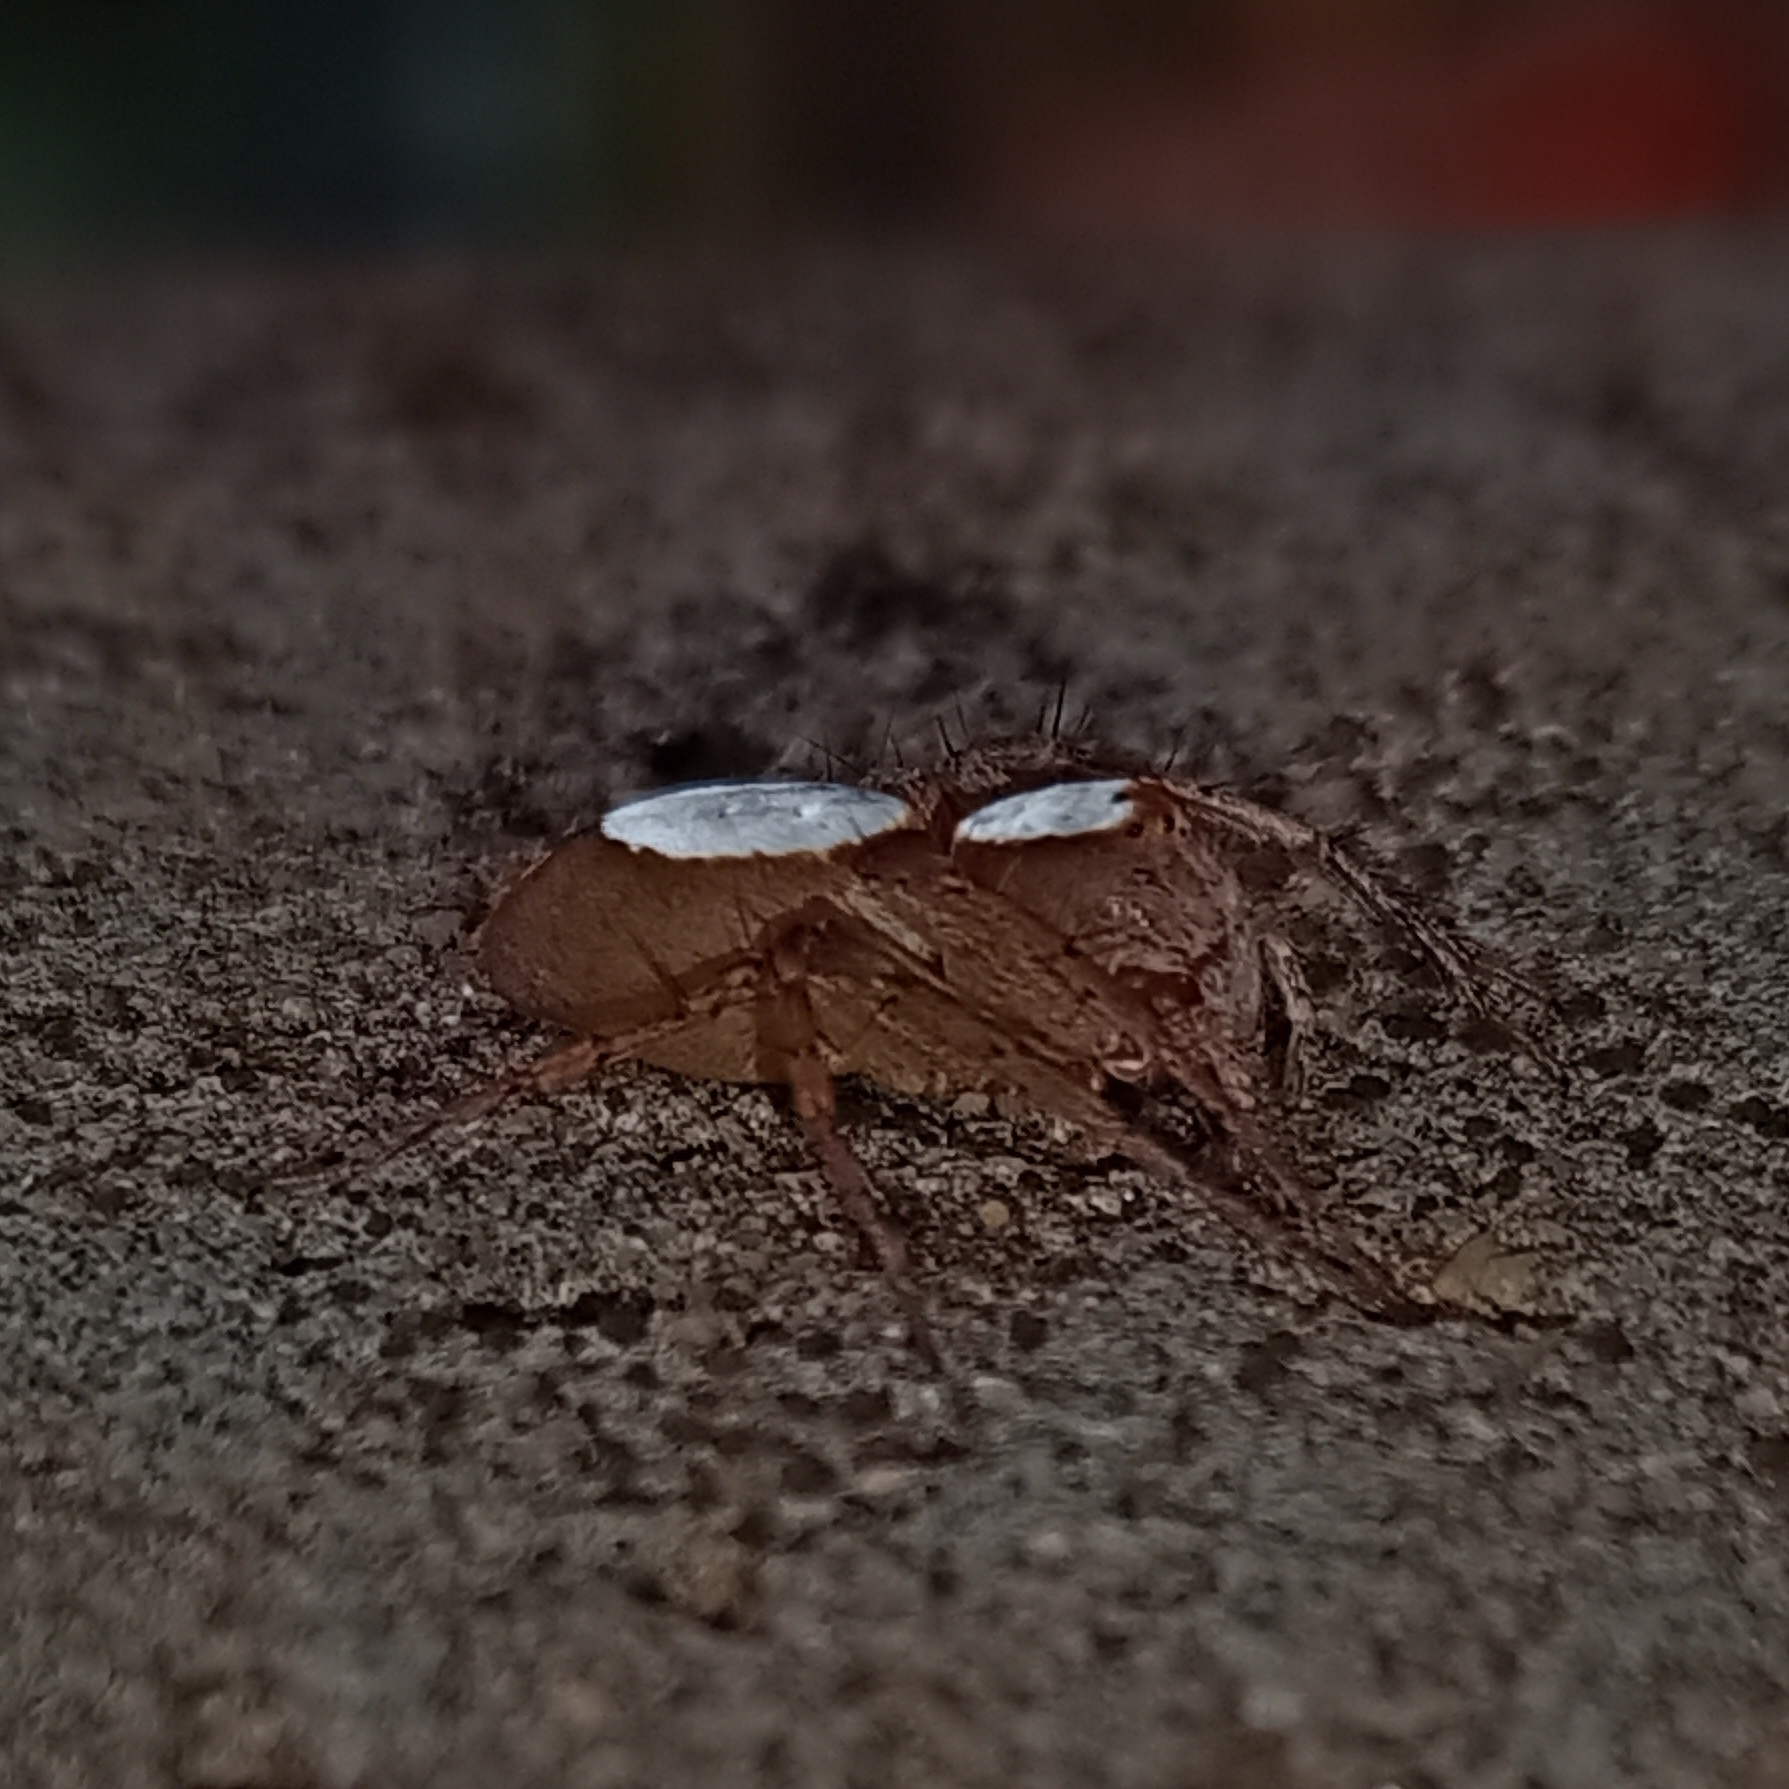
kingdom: Animalia
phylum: Arthropoda
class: Arachnida
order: Araneae
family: Oxyopidae
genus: Oxyopes
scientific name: Oxyopes niveosigillatus
